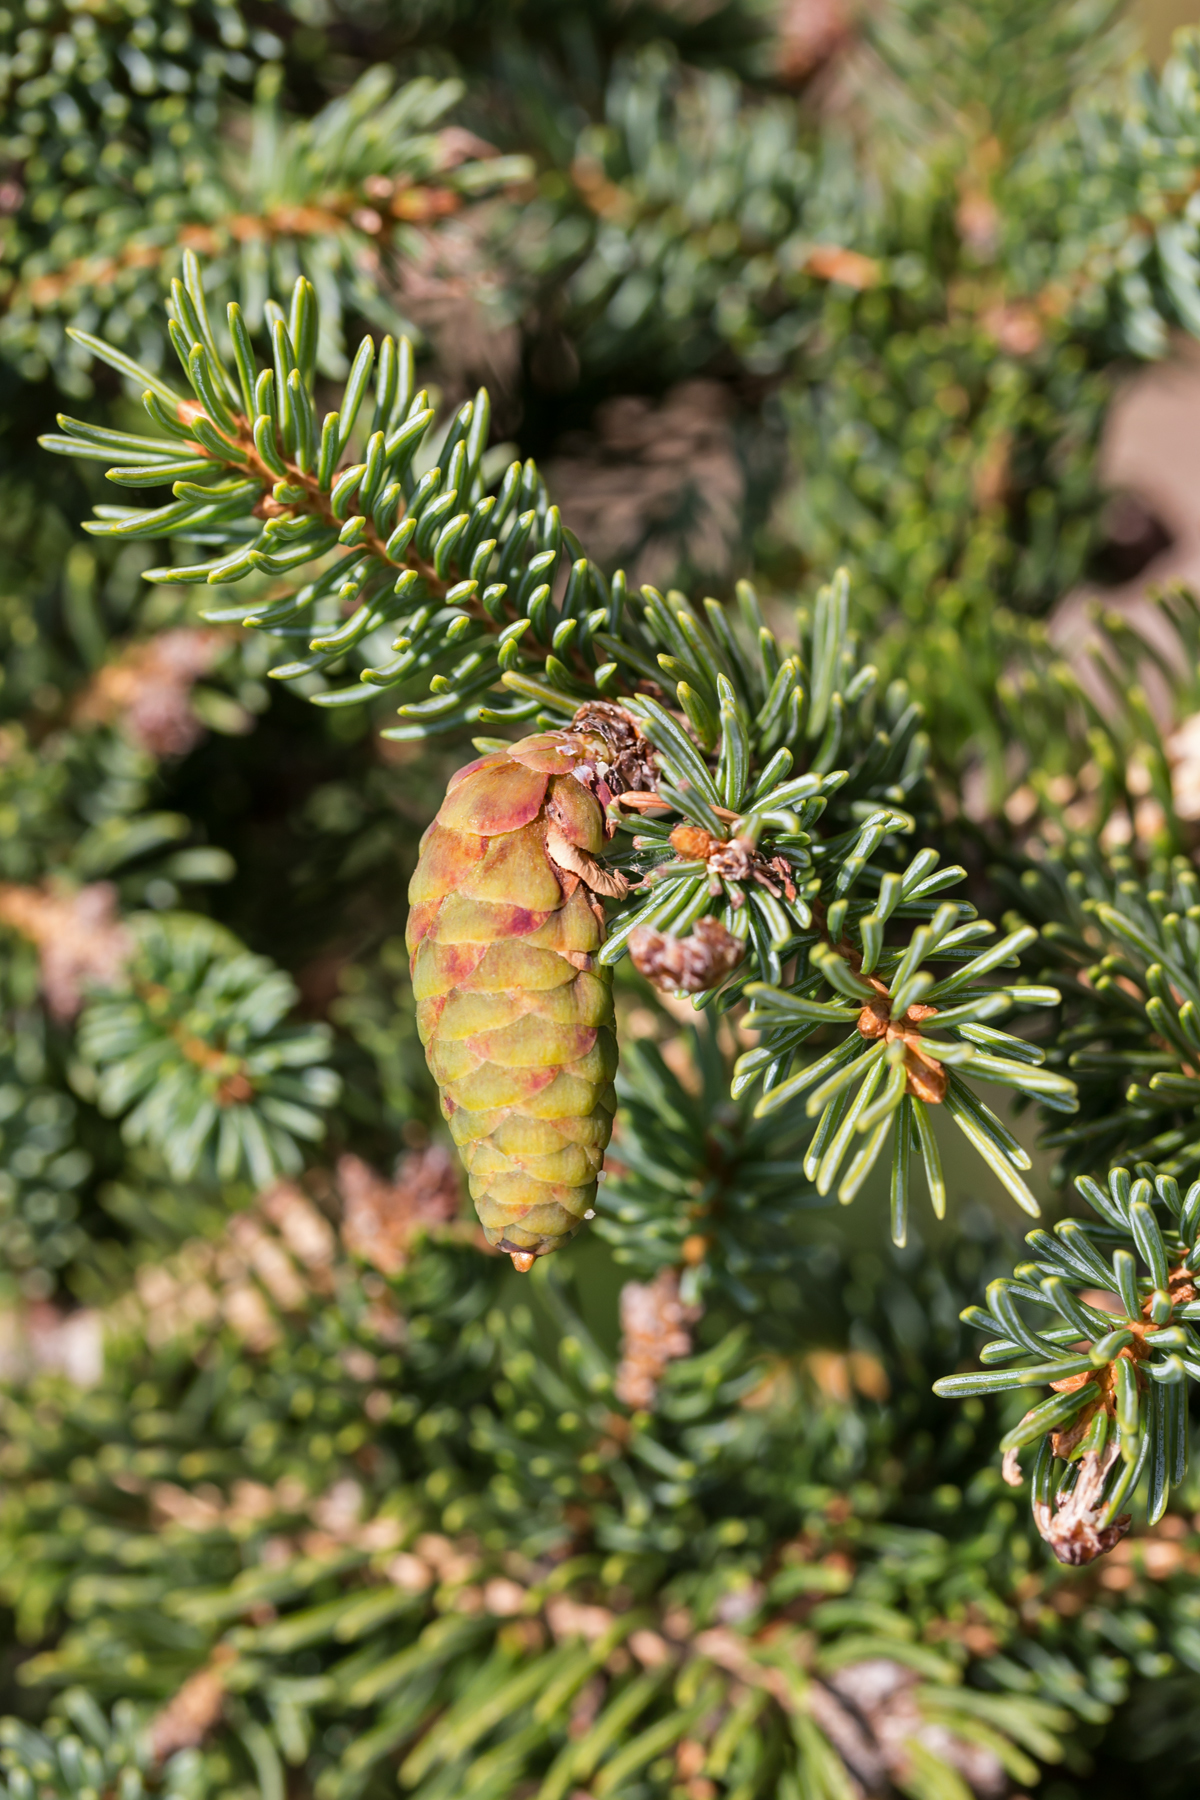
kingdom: Plantae
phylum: Tracheophyta
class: Pinopsida
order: Pinales
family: Pinaceae
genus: Picea
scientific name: Picea glauca
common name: White spruce
